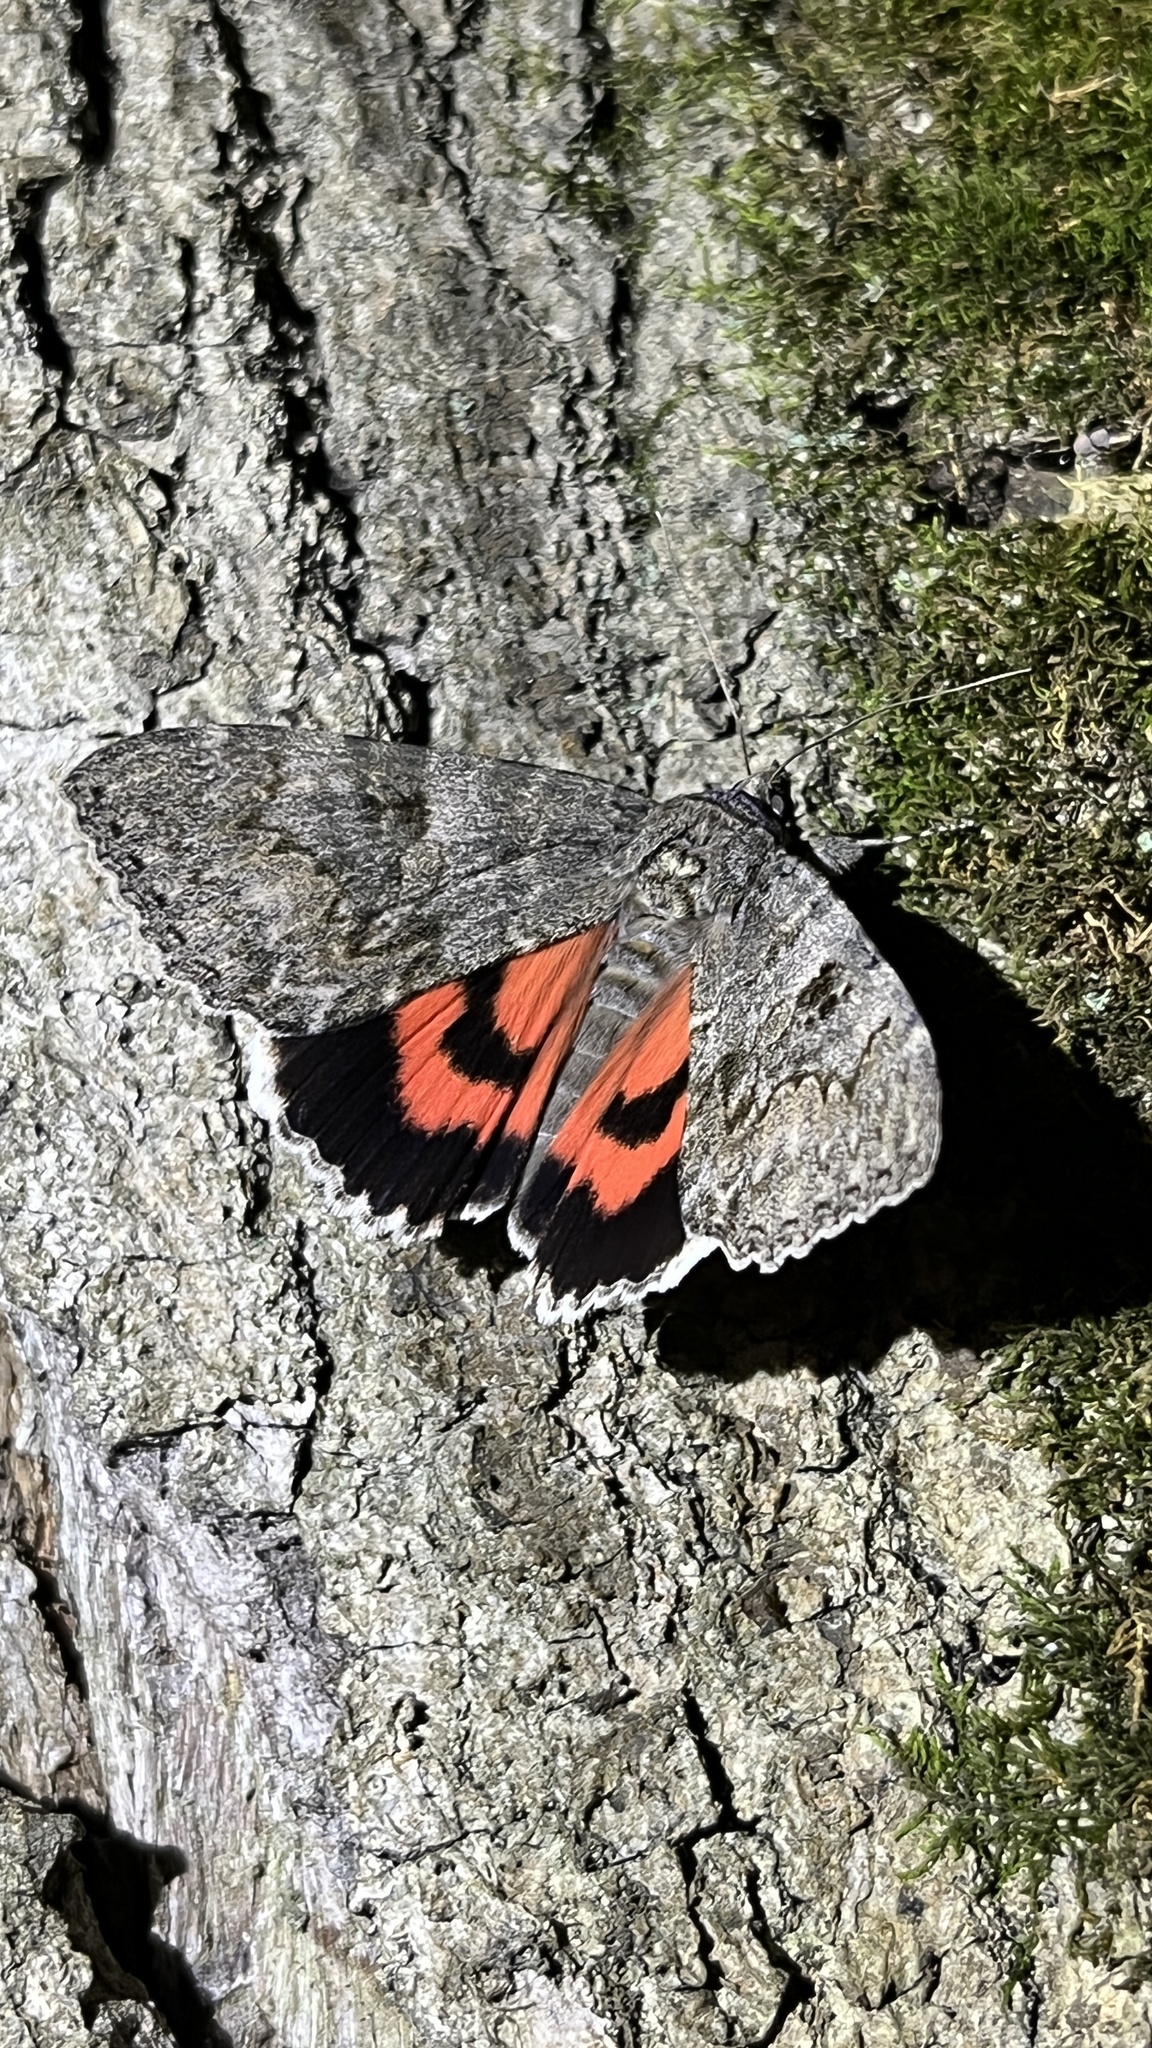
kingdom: Animalia
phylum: Arthropoda
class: Insecta
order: Lepidoptera
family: Erebidae
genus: Catocala
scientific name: Catocala nupta
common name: Red underwing
